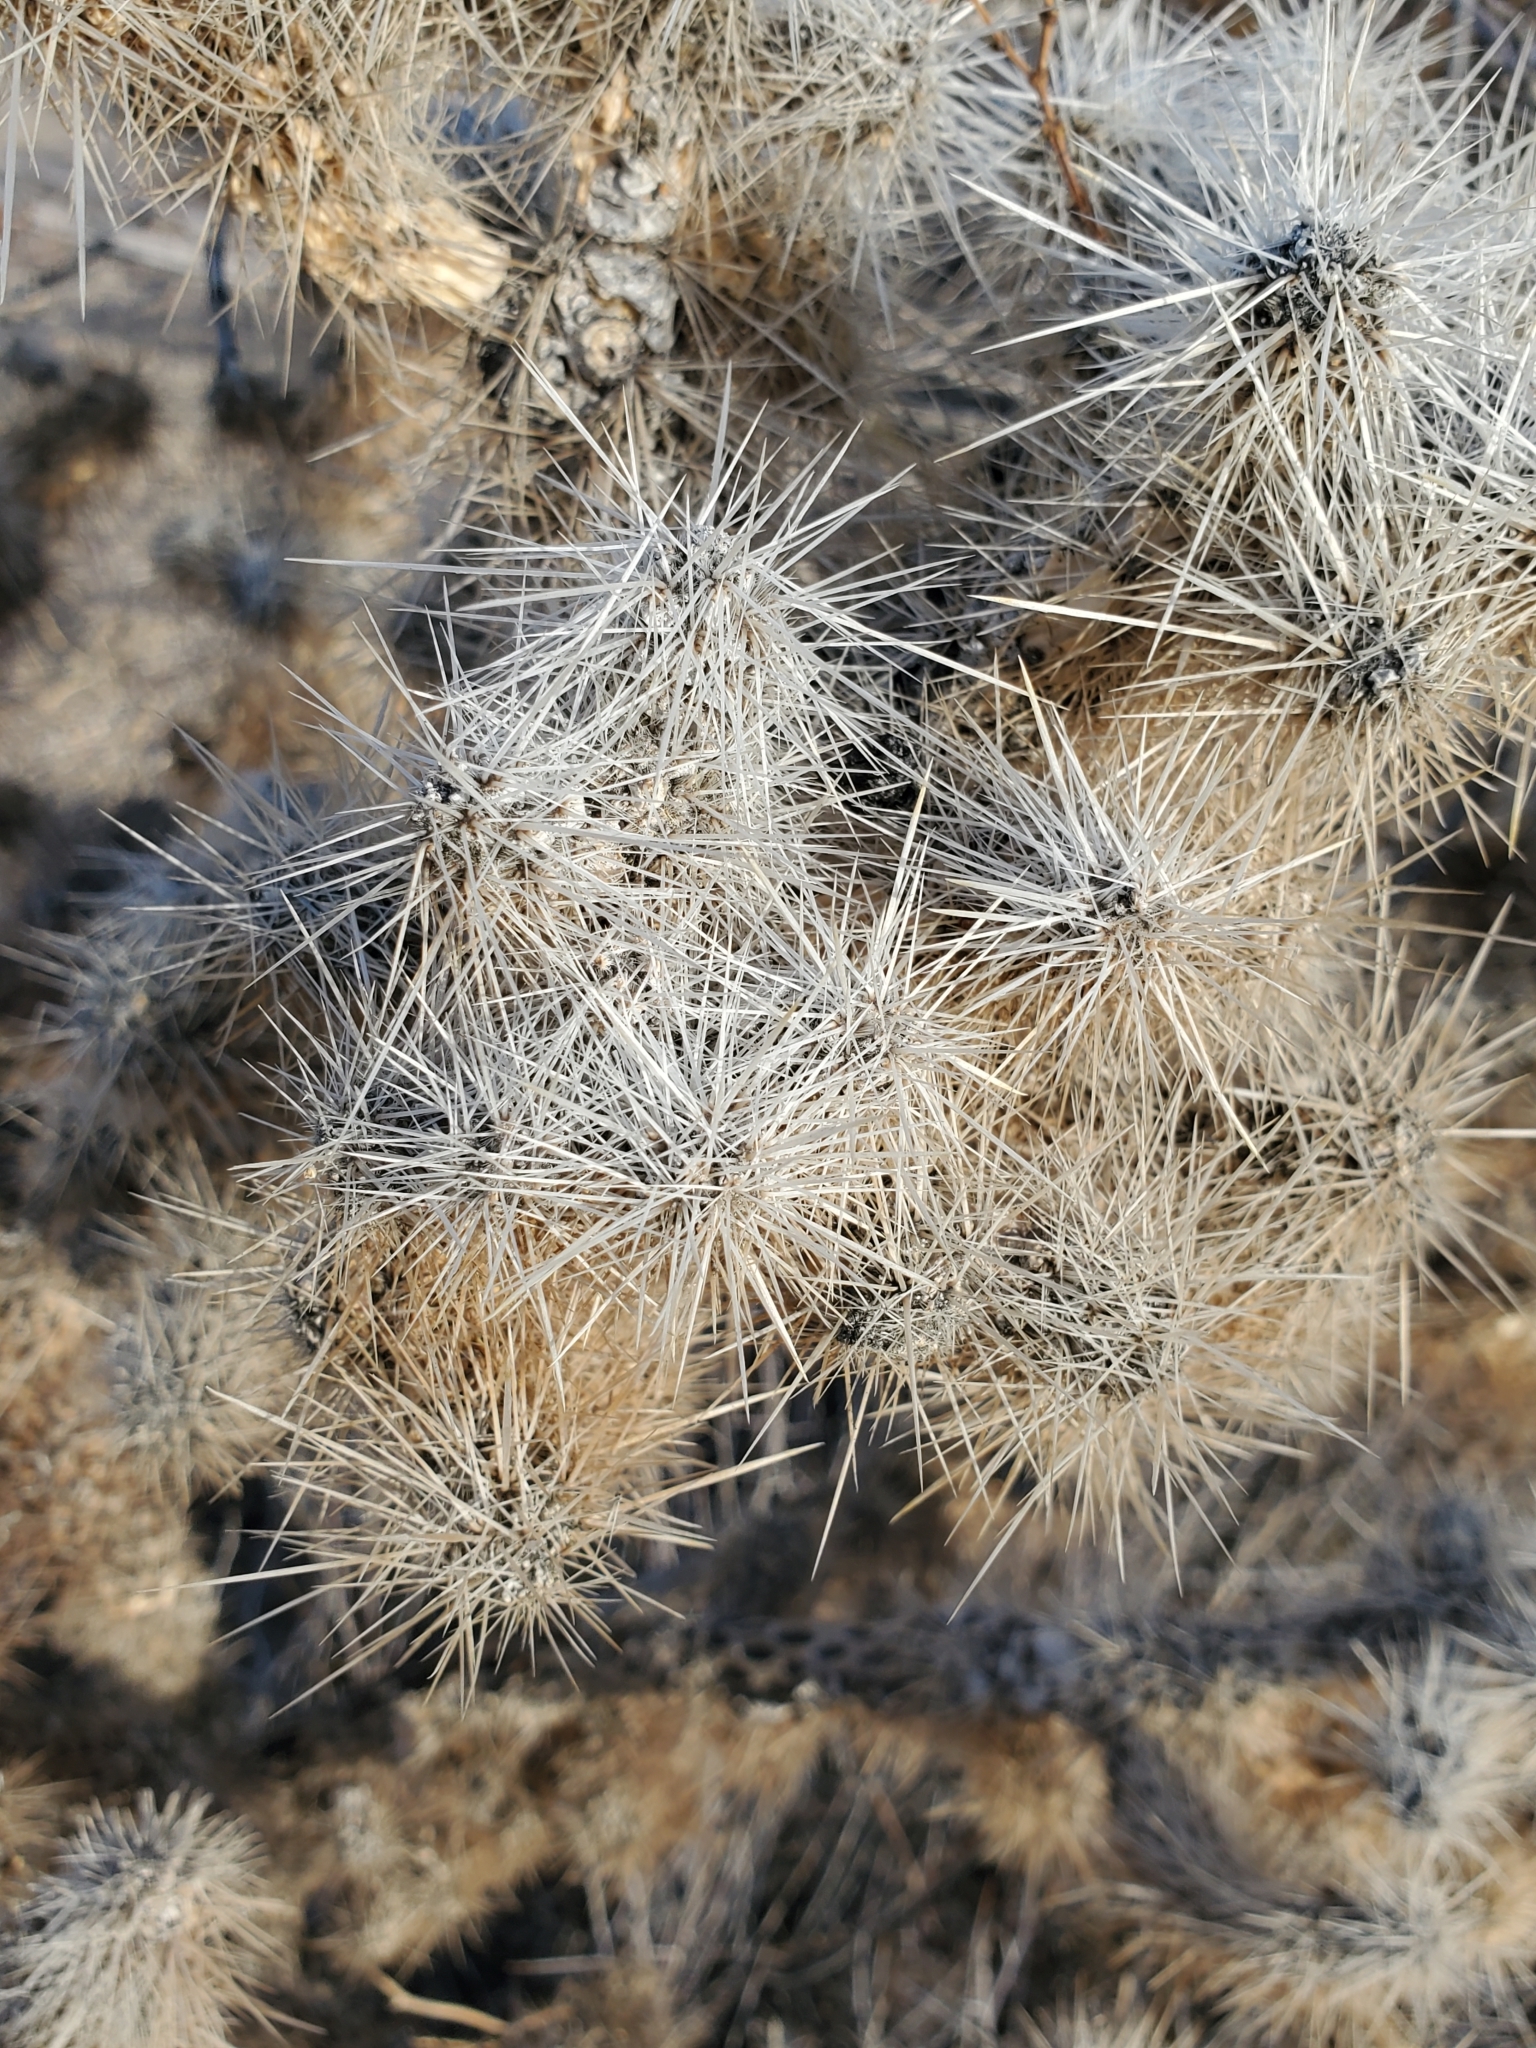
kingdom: Plantae
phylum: Tracheophyta
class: Magnoliopsida
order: Caryophyllales
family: Cactaceae
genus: Cylindropuntia
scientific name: Cylindropuntia echinocarpa
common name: Ground cholla
